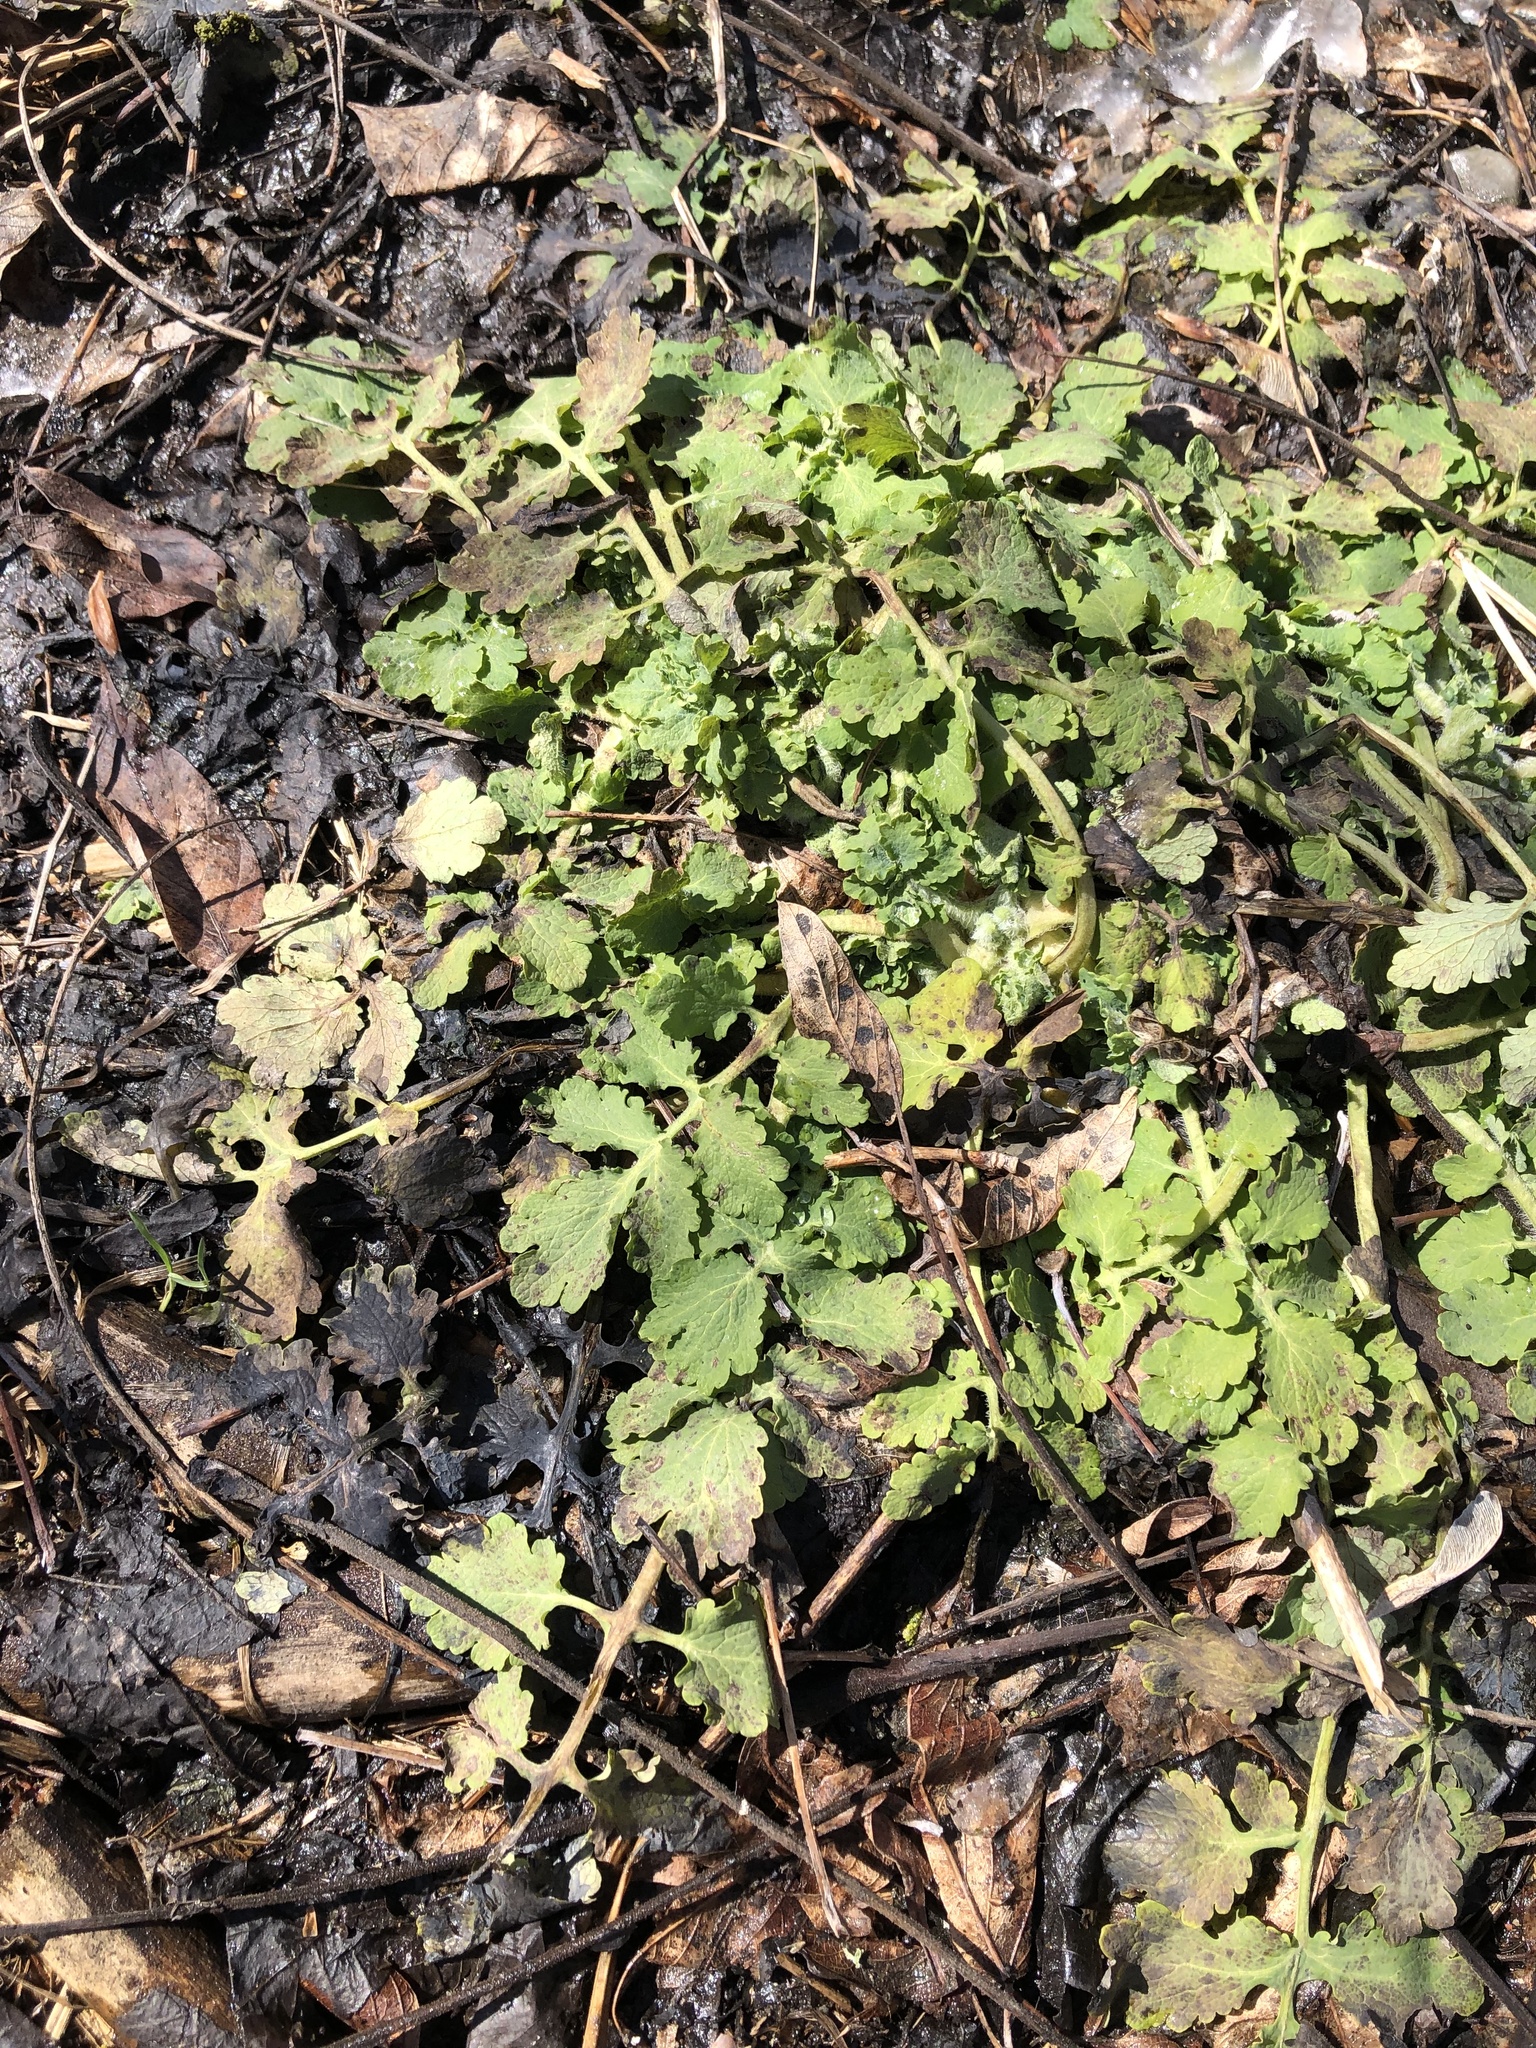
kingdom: Plantae
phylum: Tracheophyta
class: Magnoliopsida
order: Ranunculales
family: Papaveraceae
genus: Chelidonium
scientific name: Chelidonium majus
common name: Greater celandine
